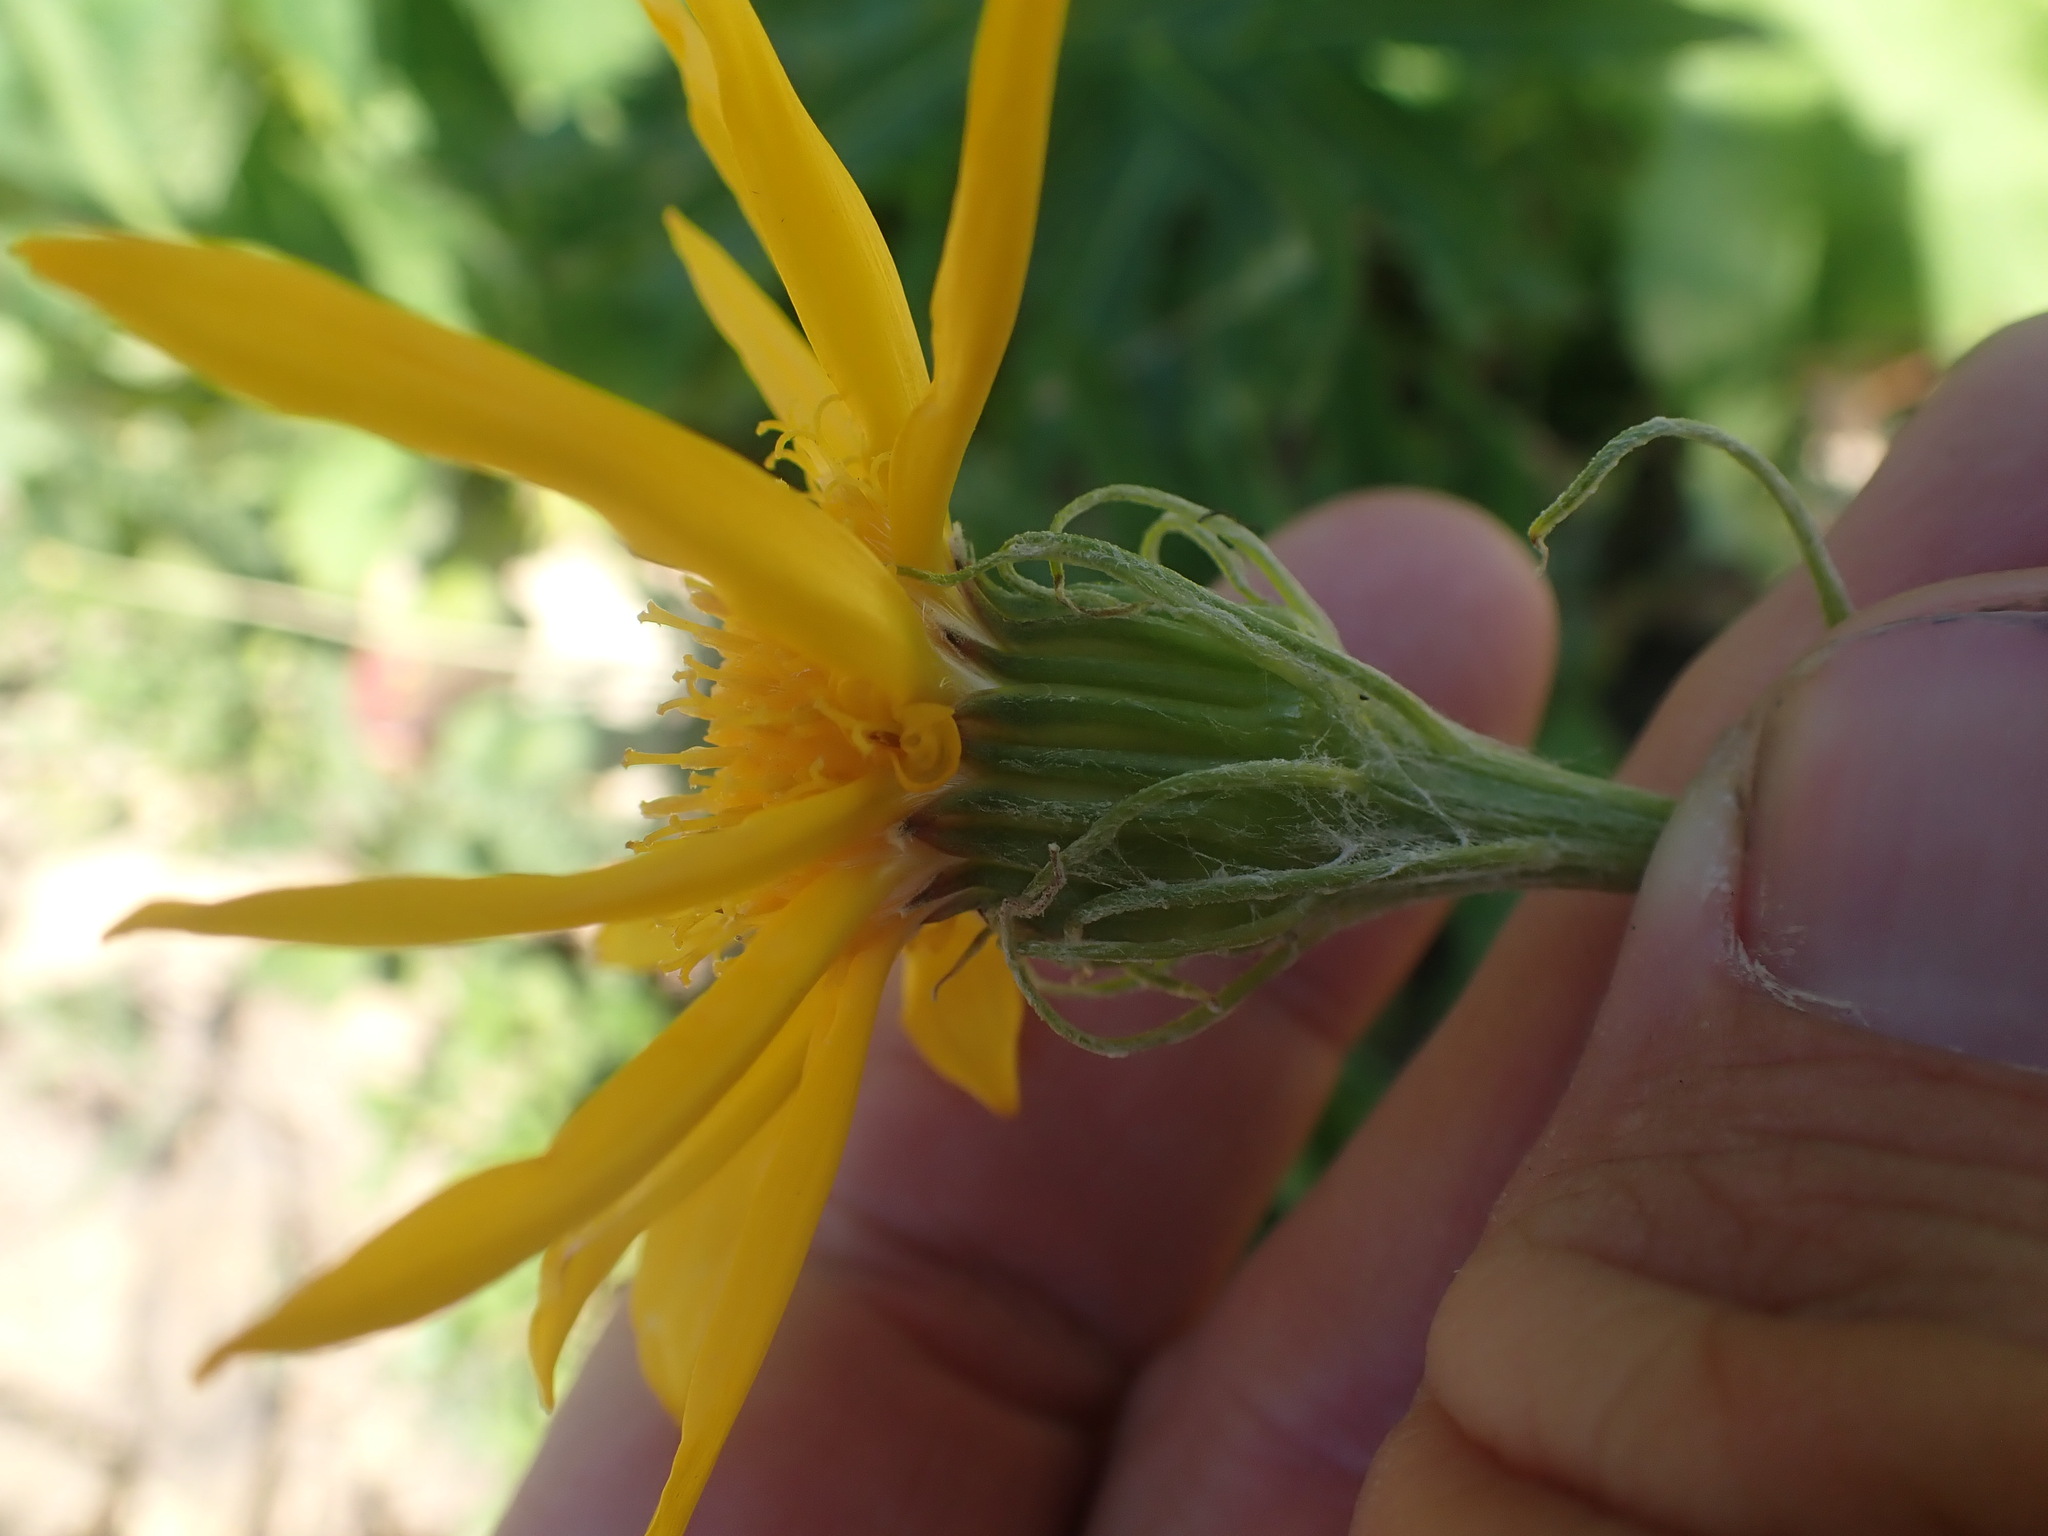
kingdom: Plantae
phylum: Tracheophyta
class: Magnoliopsida
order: Asterales
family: Asteraceae
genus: Senecio
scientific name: Senecio megacephalus
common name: Large-flowered ragwort
